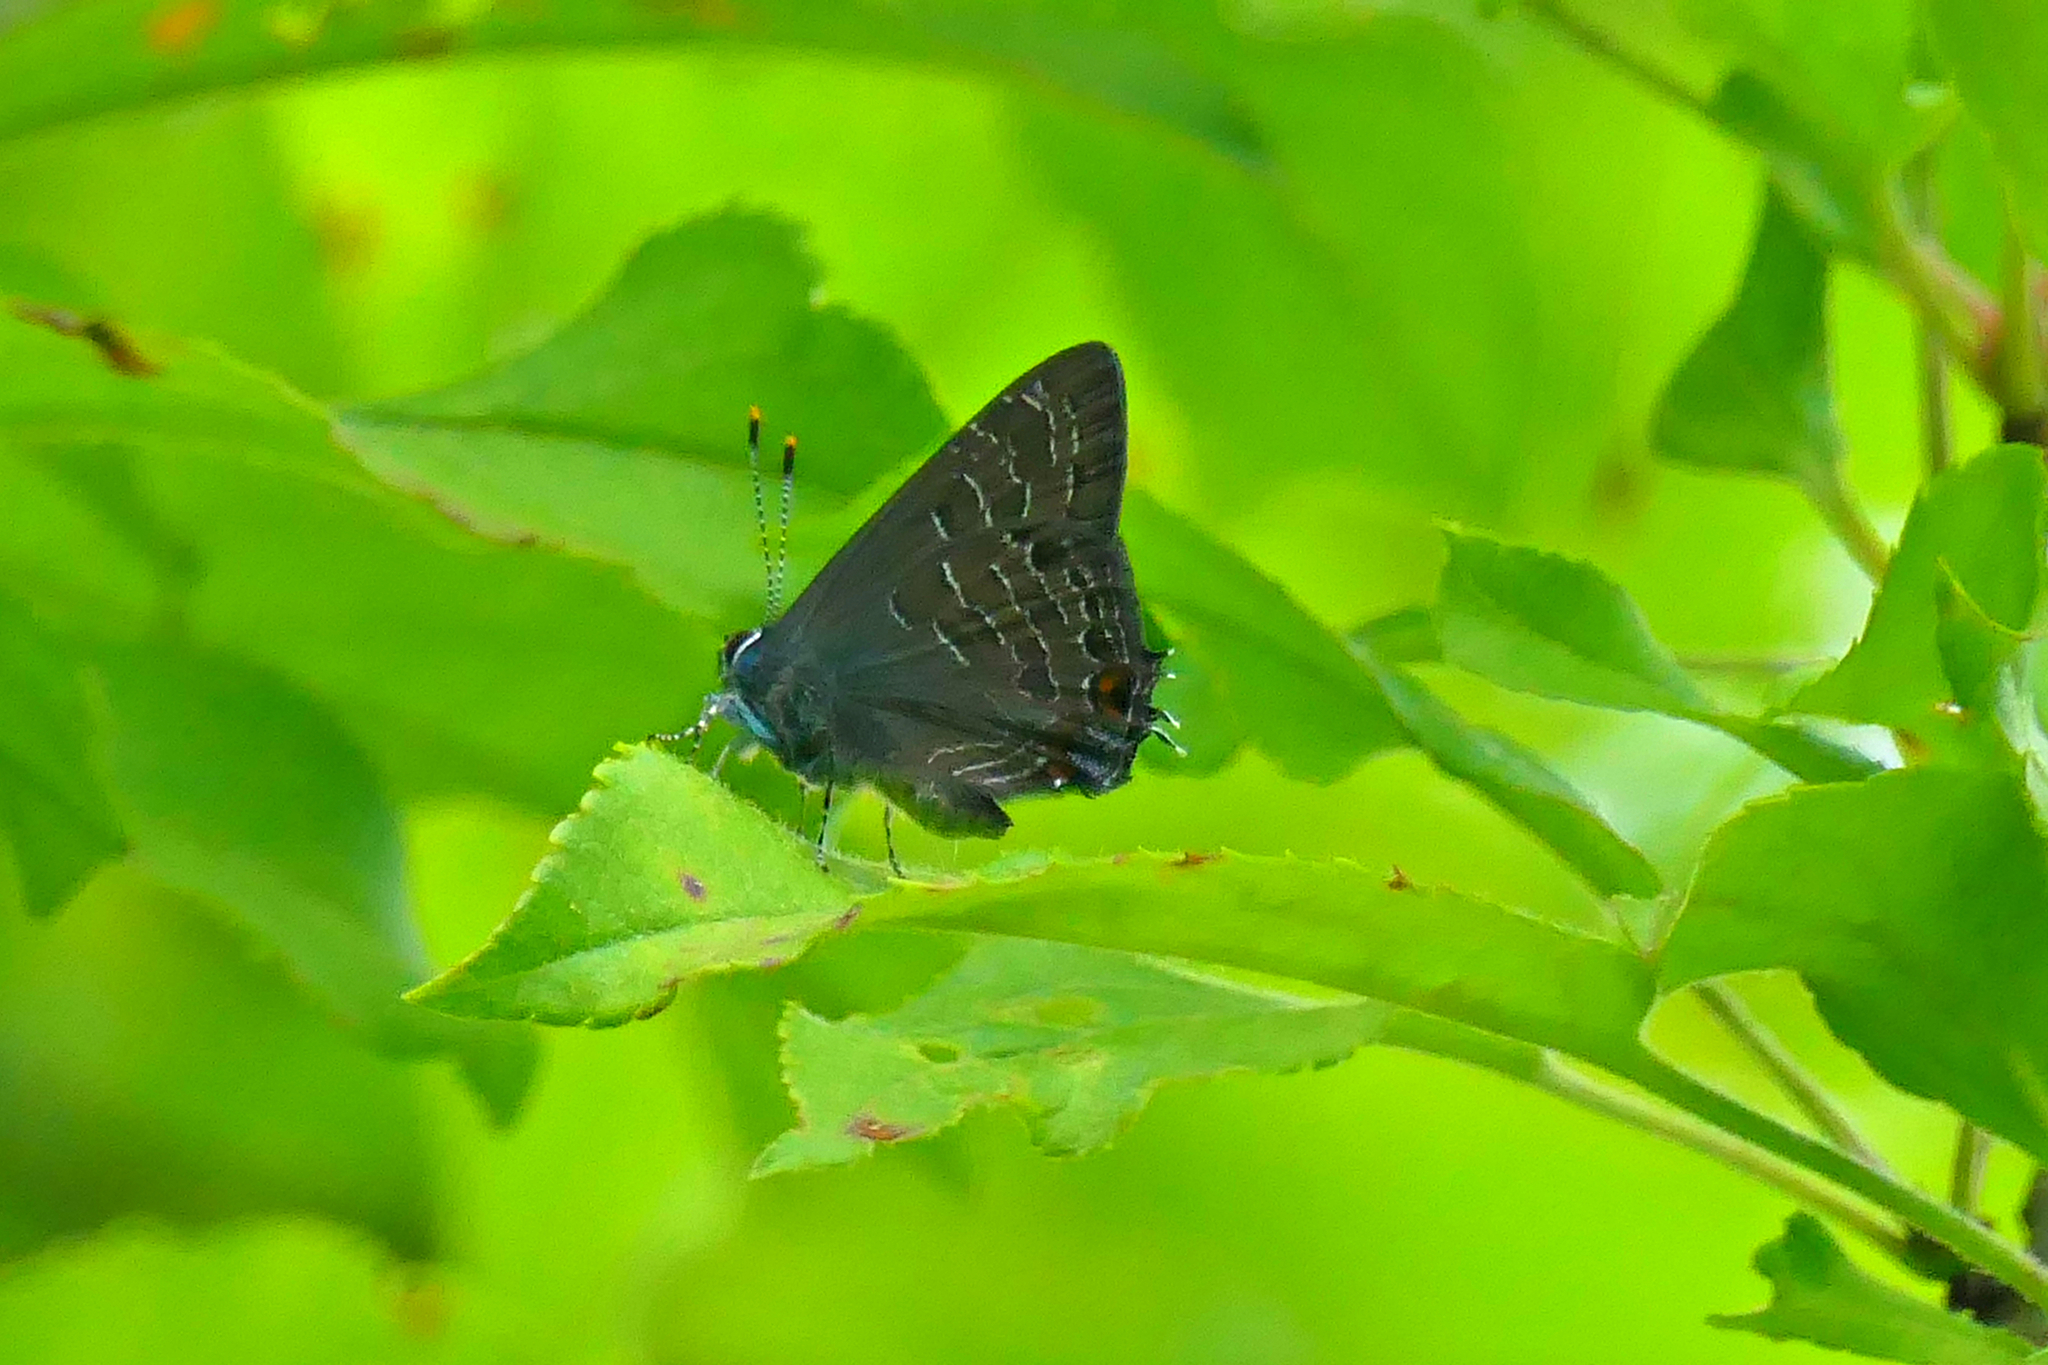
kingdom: Animalia
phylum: Arthropoda
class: Insecta
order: Lepidoptera
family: Lycaenidae
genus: Satyrium
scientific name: Satyrium liparops
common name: Striped hairstreak
